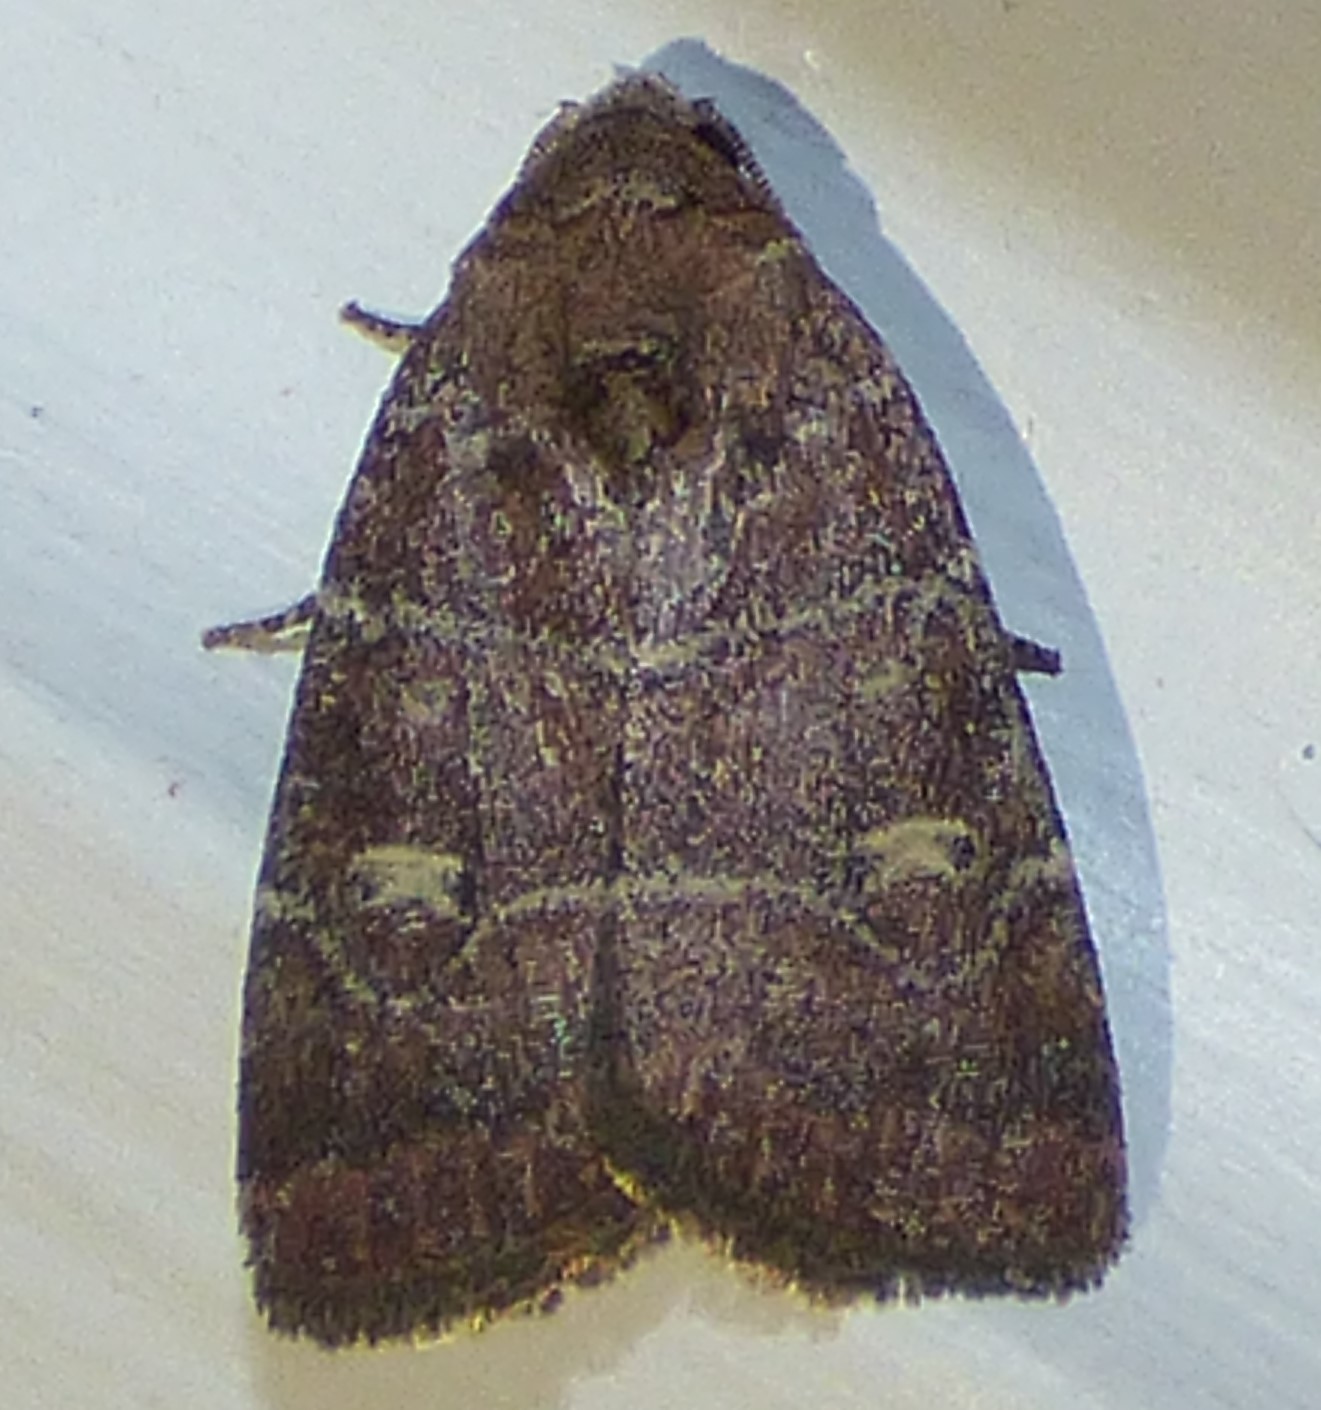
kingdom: Animalia
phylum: Arthropoda
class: Insecta
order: Lepidoptera
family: Noctuidae
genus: Elaphria
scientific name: Elaphria grata
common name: Grateful midget moth
